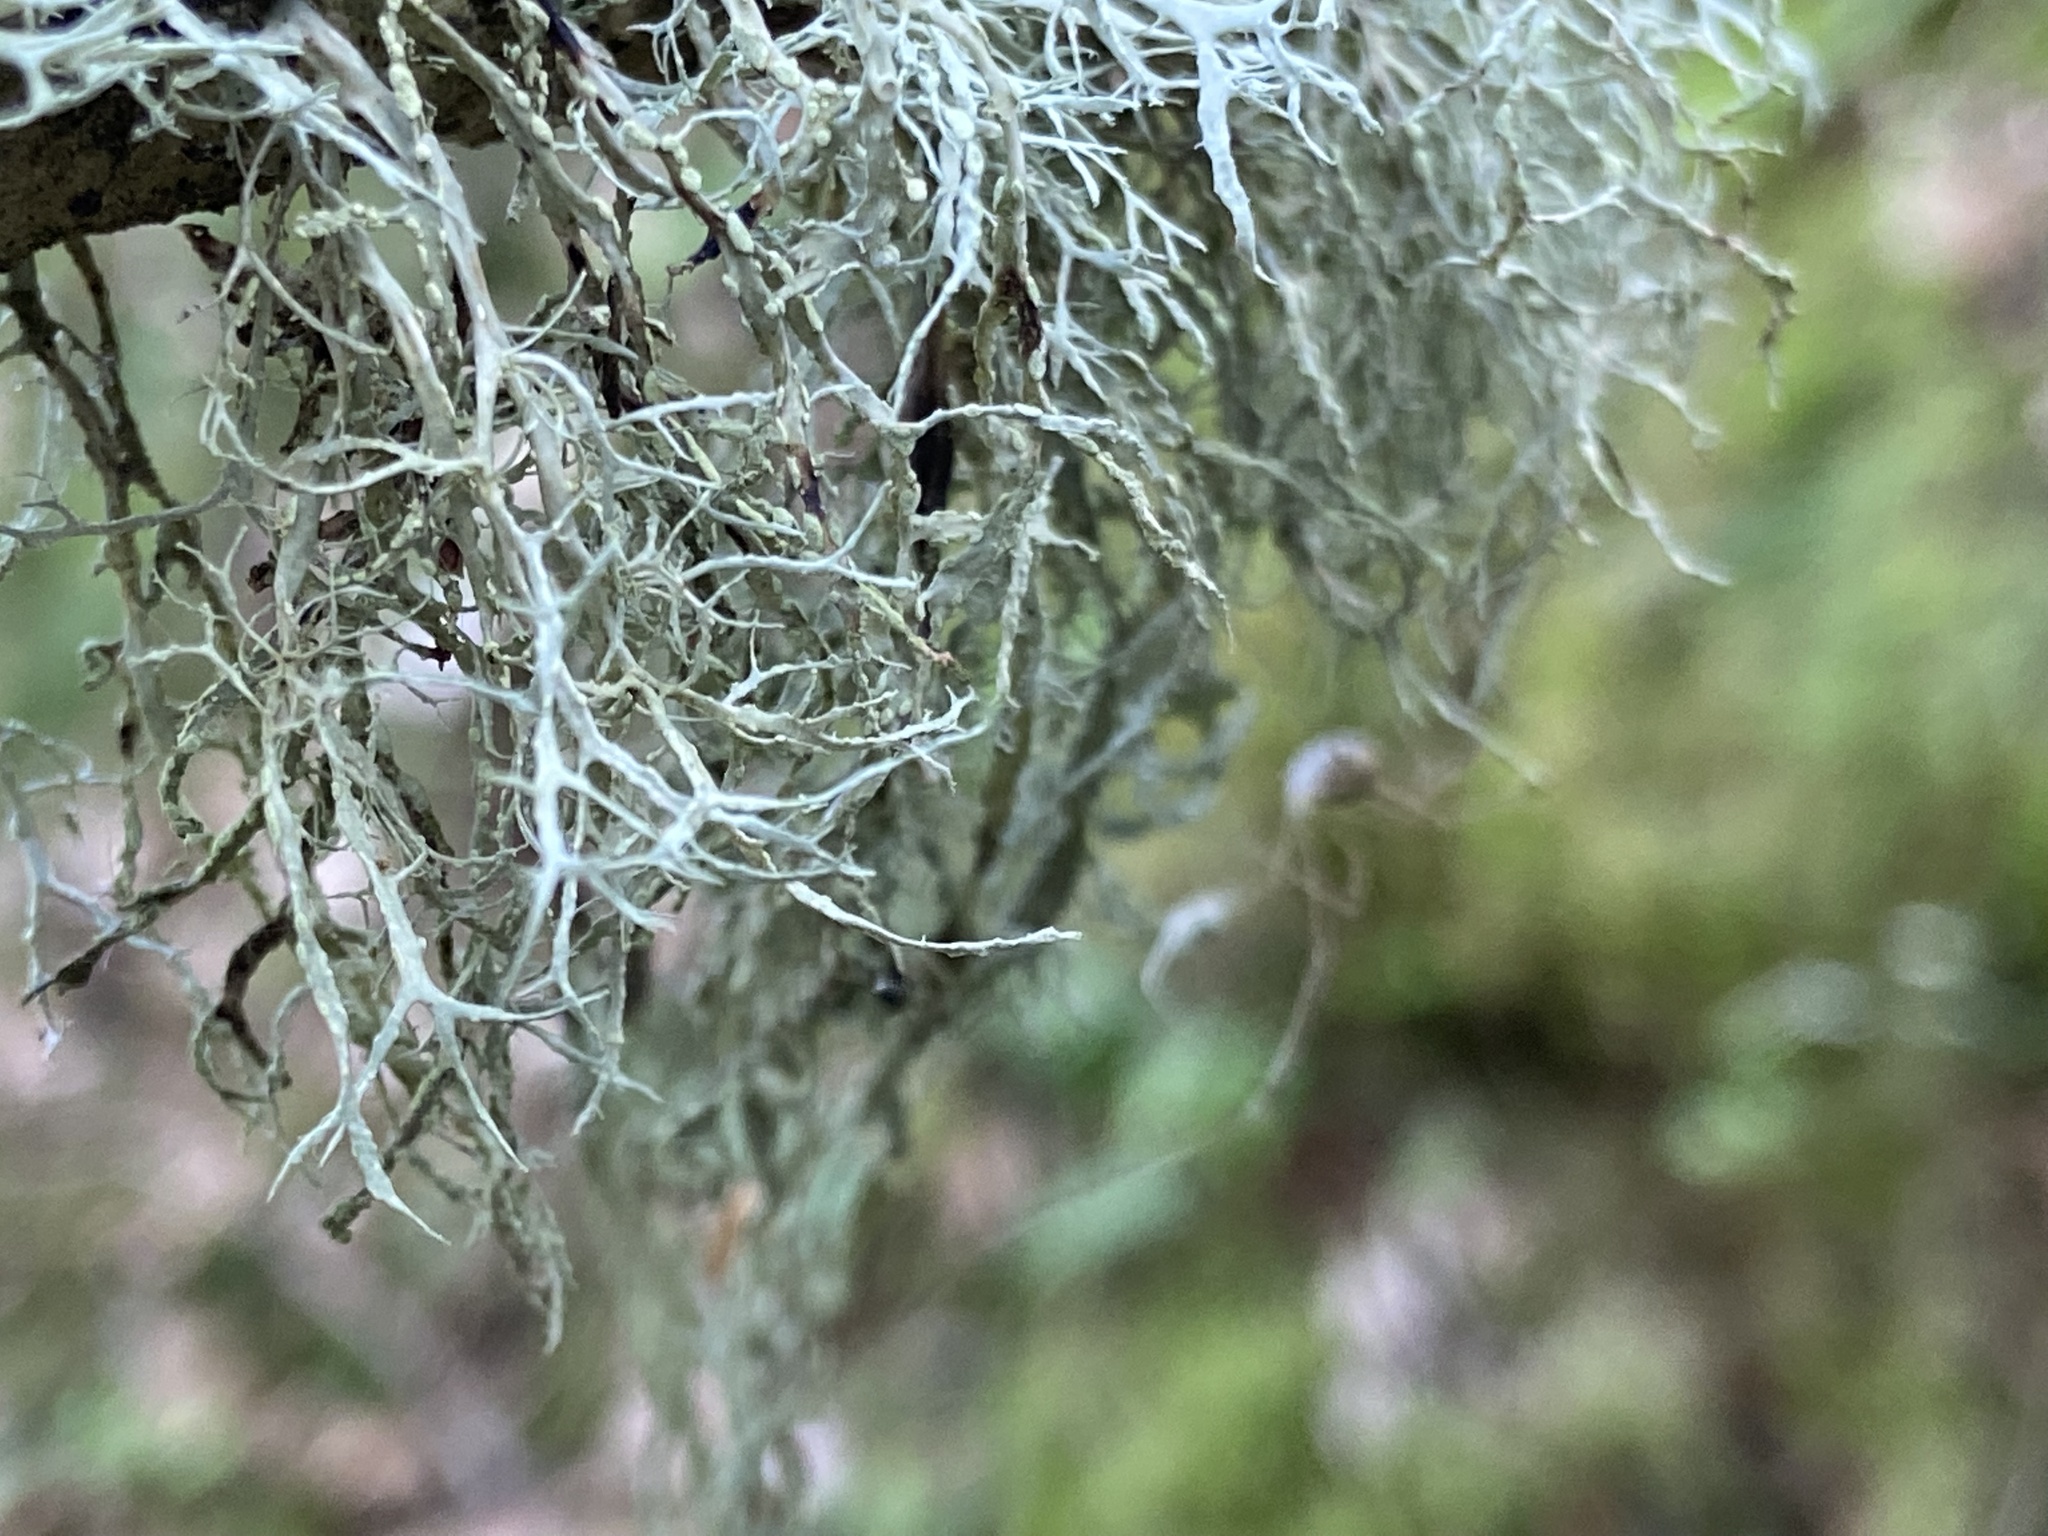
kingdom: Fungi
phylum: Ascomycota
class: Lecanoromycetes
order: Lecanorales
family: Ramalinaceae
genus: Ramalina
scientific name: Ramalina farinacea
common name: Farinose cartilage lichen
